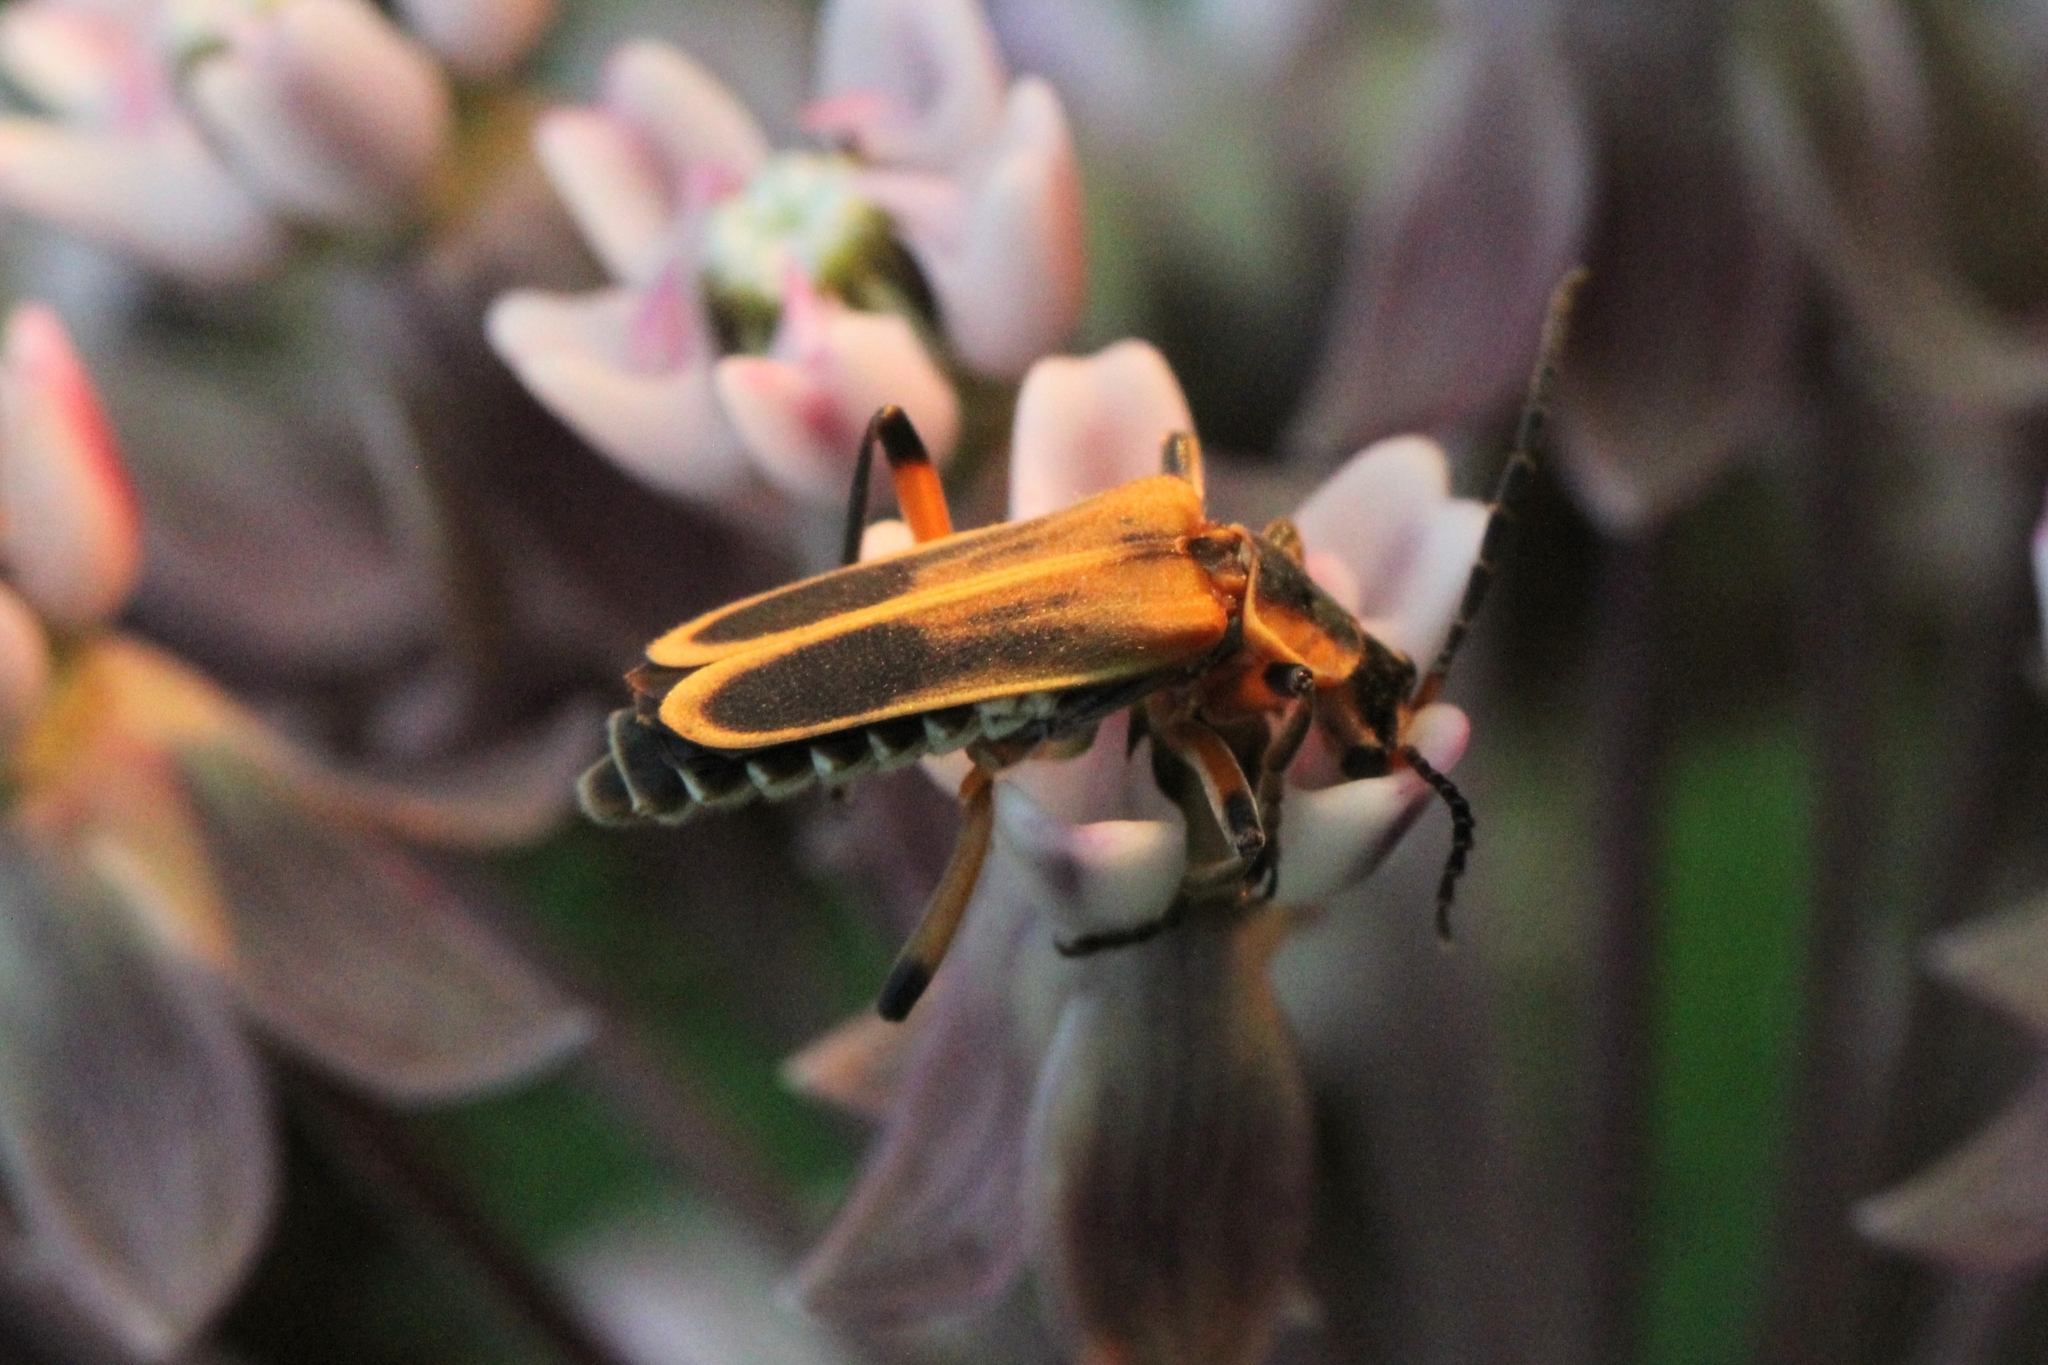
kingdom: Animalia
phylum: Arthropoda
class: Insecta
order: Coleoptera
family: Cantharidae
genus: Chauliognathus
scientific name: Chauliognathus marginatus
